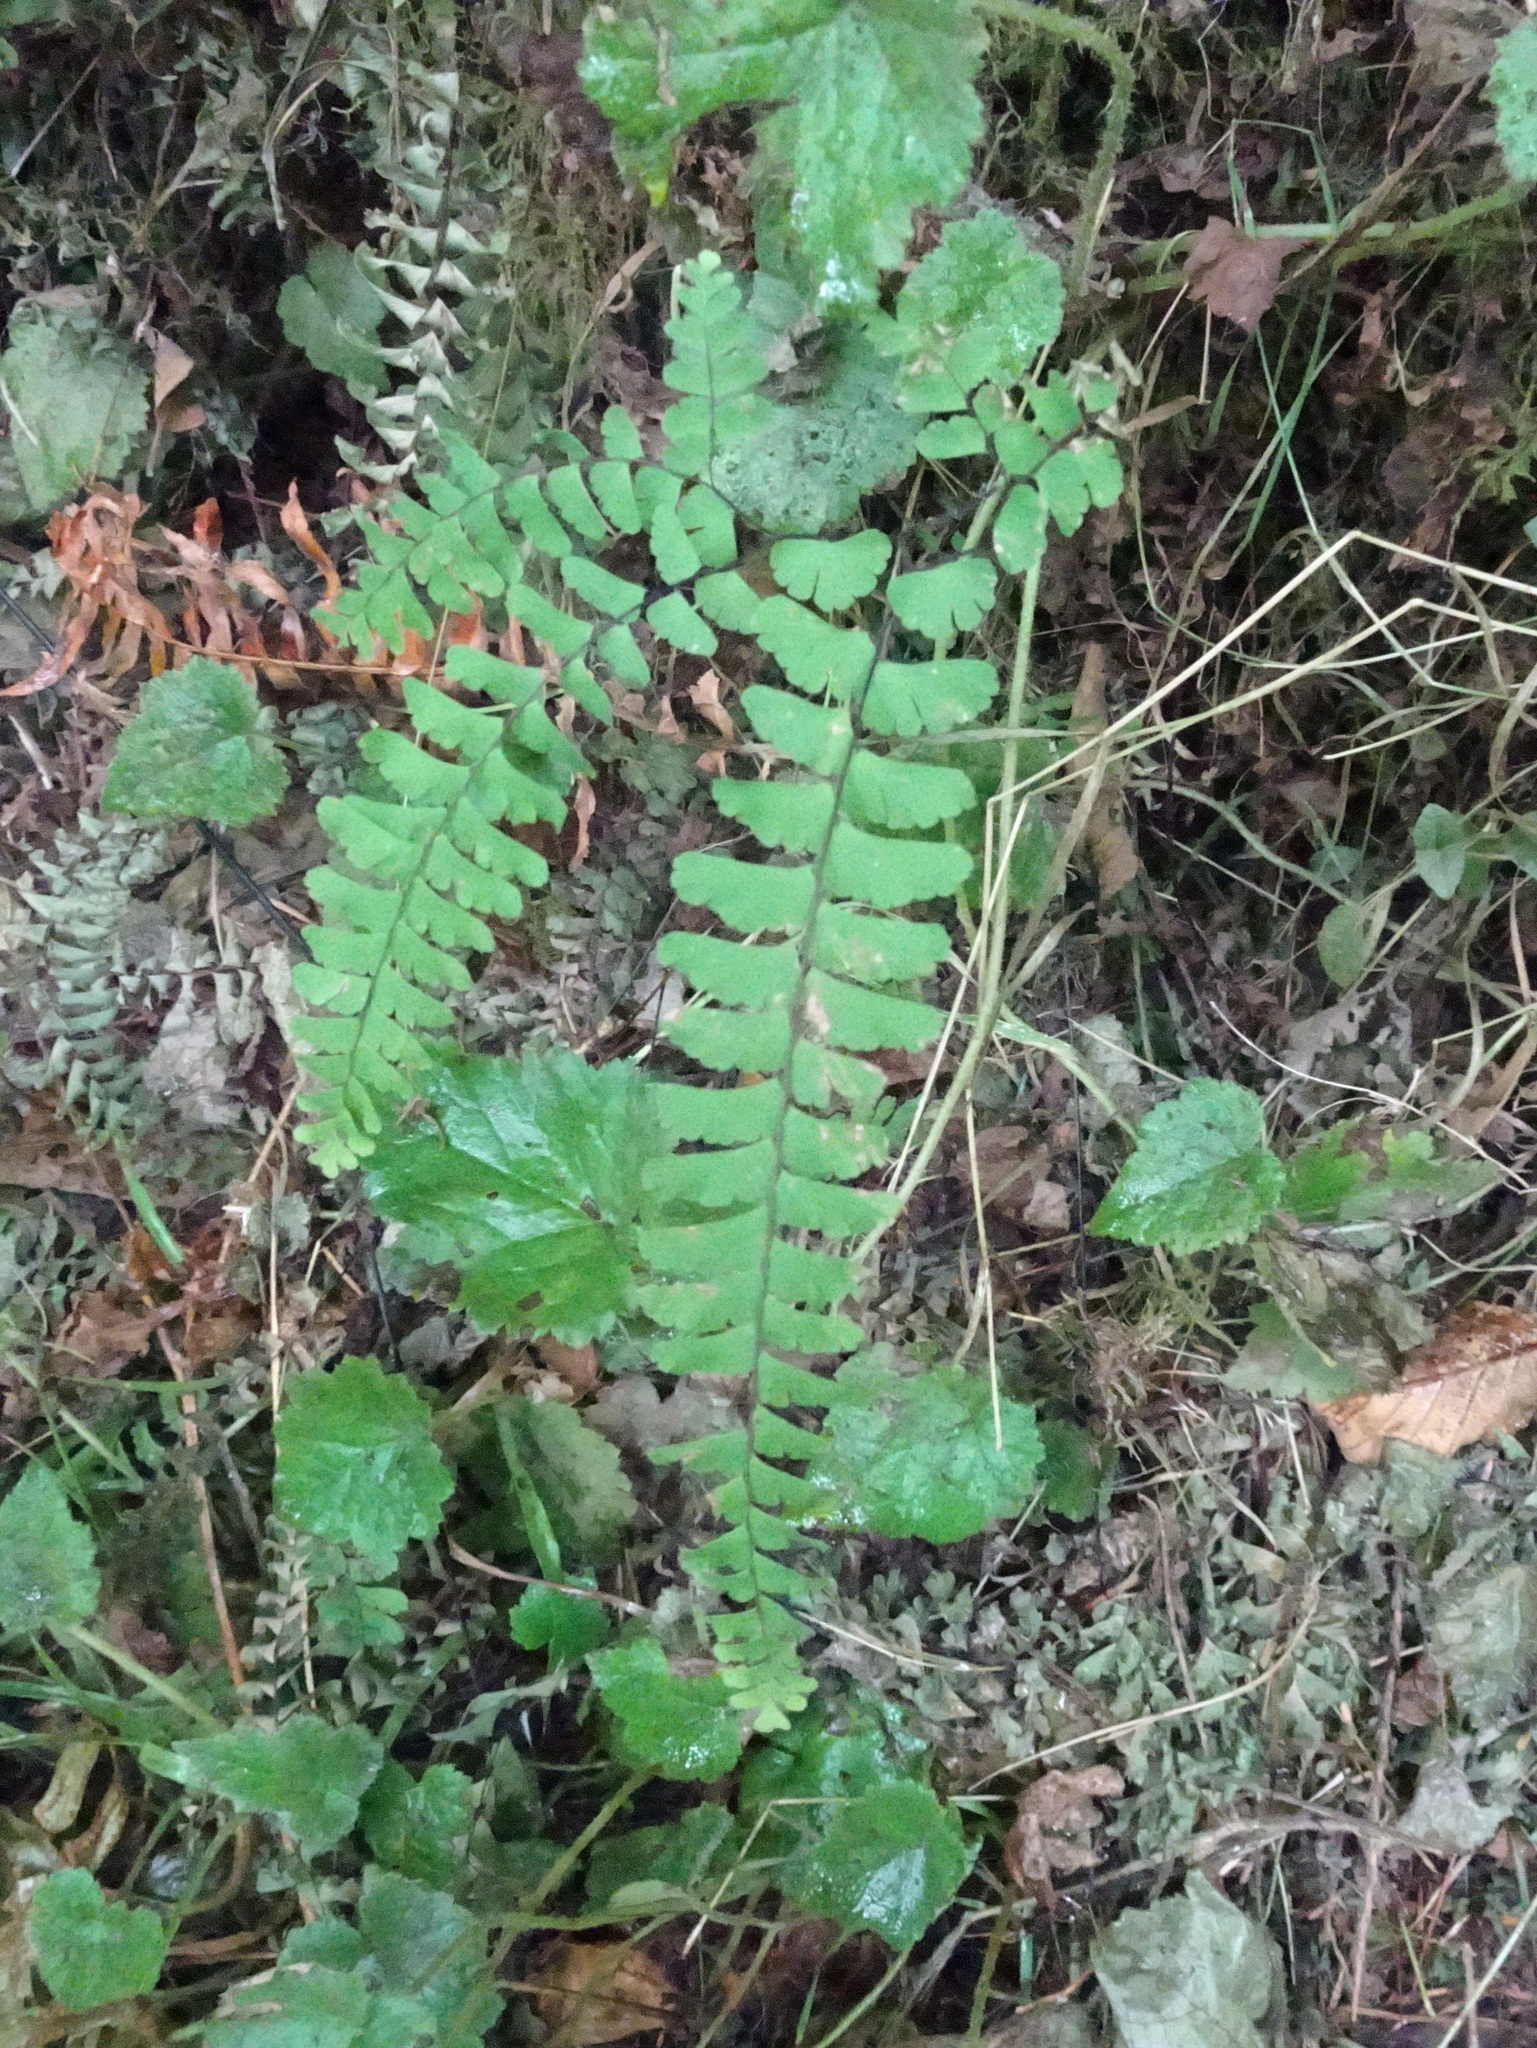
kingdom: Plantae
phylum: Tracheophyta
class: Polypodiopsida
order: Polypodiales
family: Pteridaceae
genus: Adiantum
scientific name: Adiantum aleuticum
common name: Aleutian maidenhair fern
